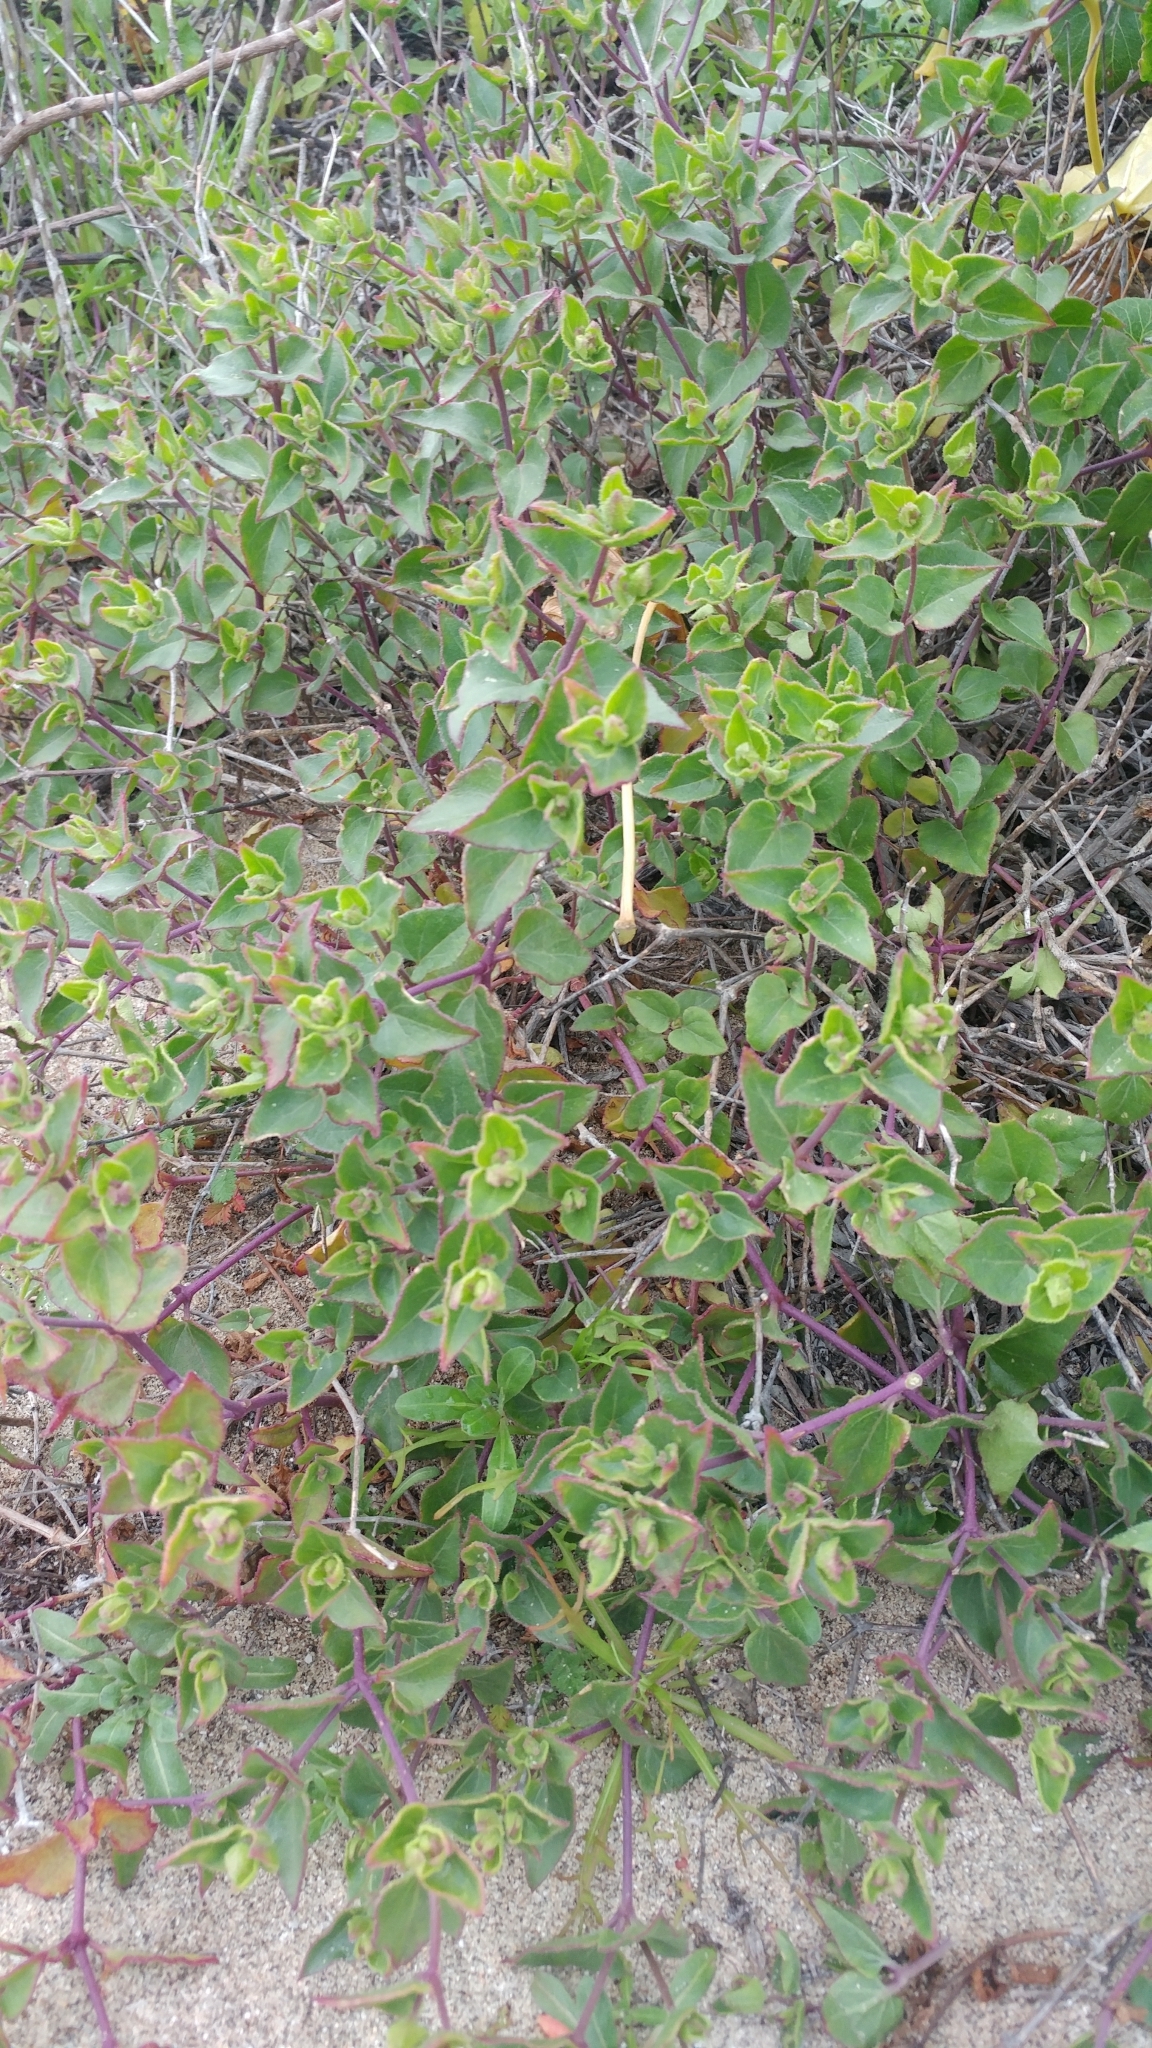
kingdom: Plantae
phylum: Tracheophyta
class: Magnoliopsida
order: Caryophyllales
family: Nyctaginaceae
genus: Mirabilis
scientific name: Mirabilis laevis
